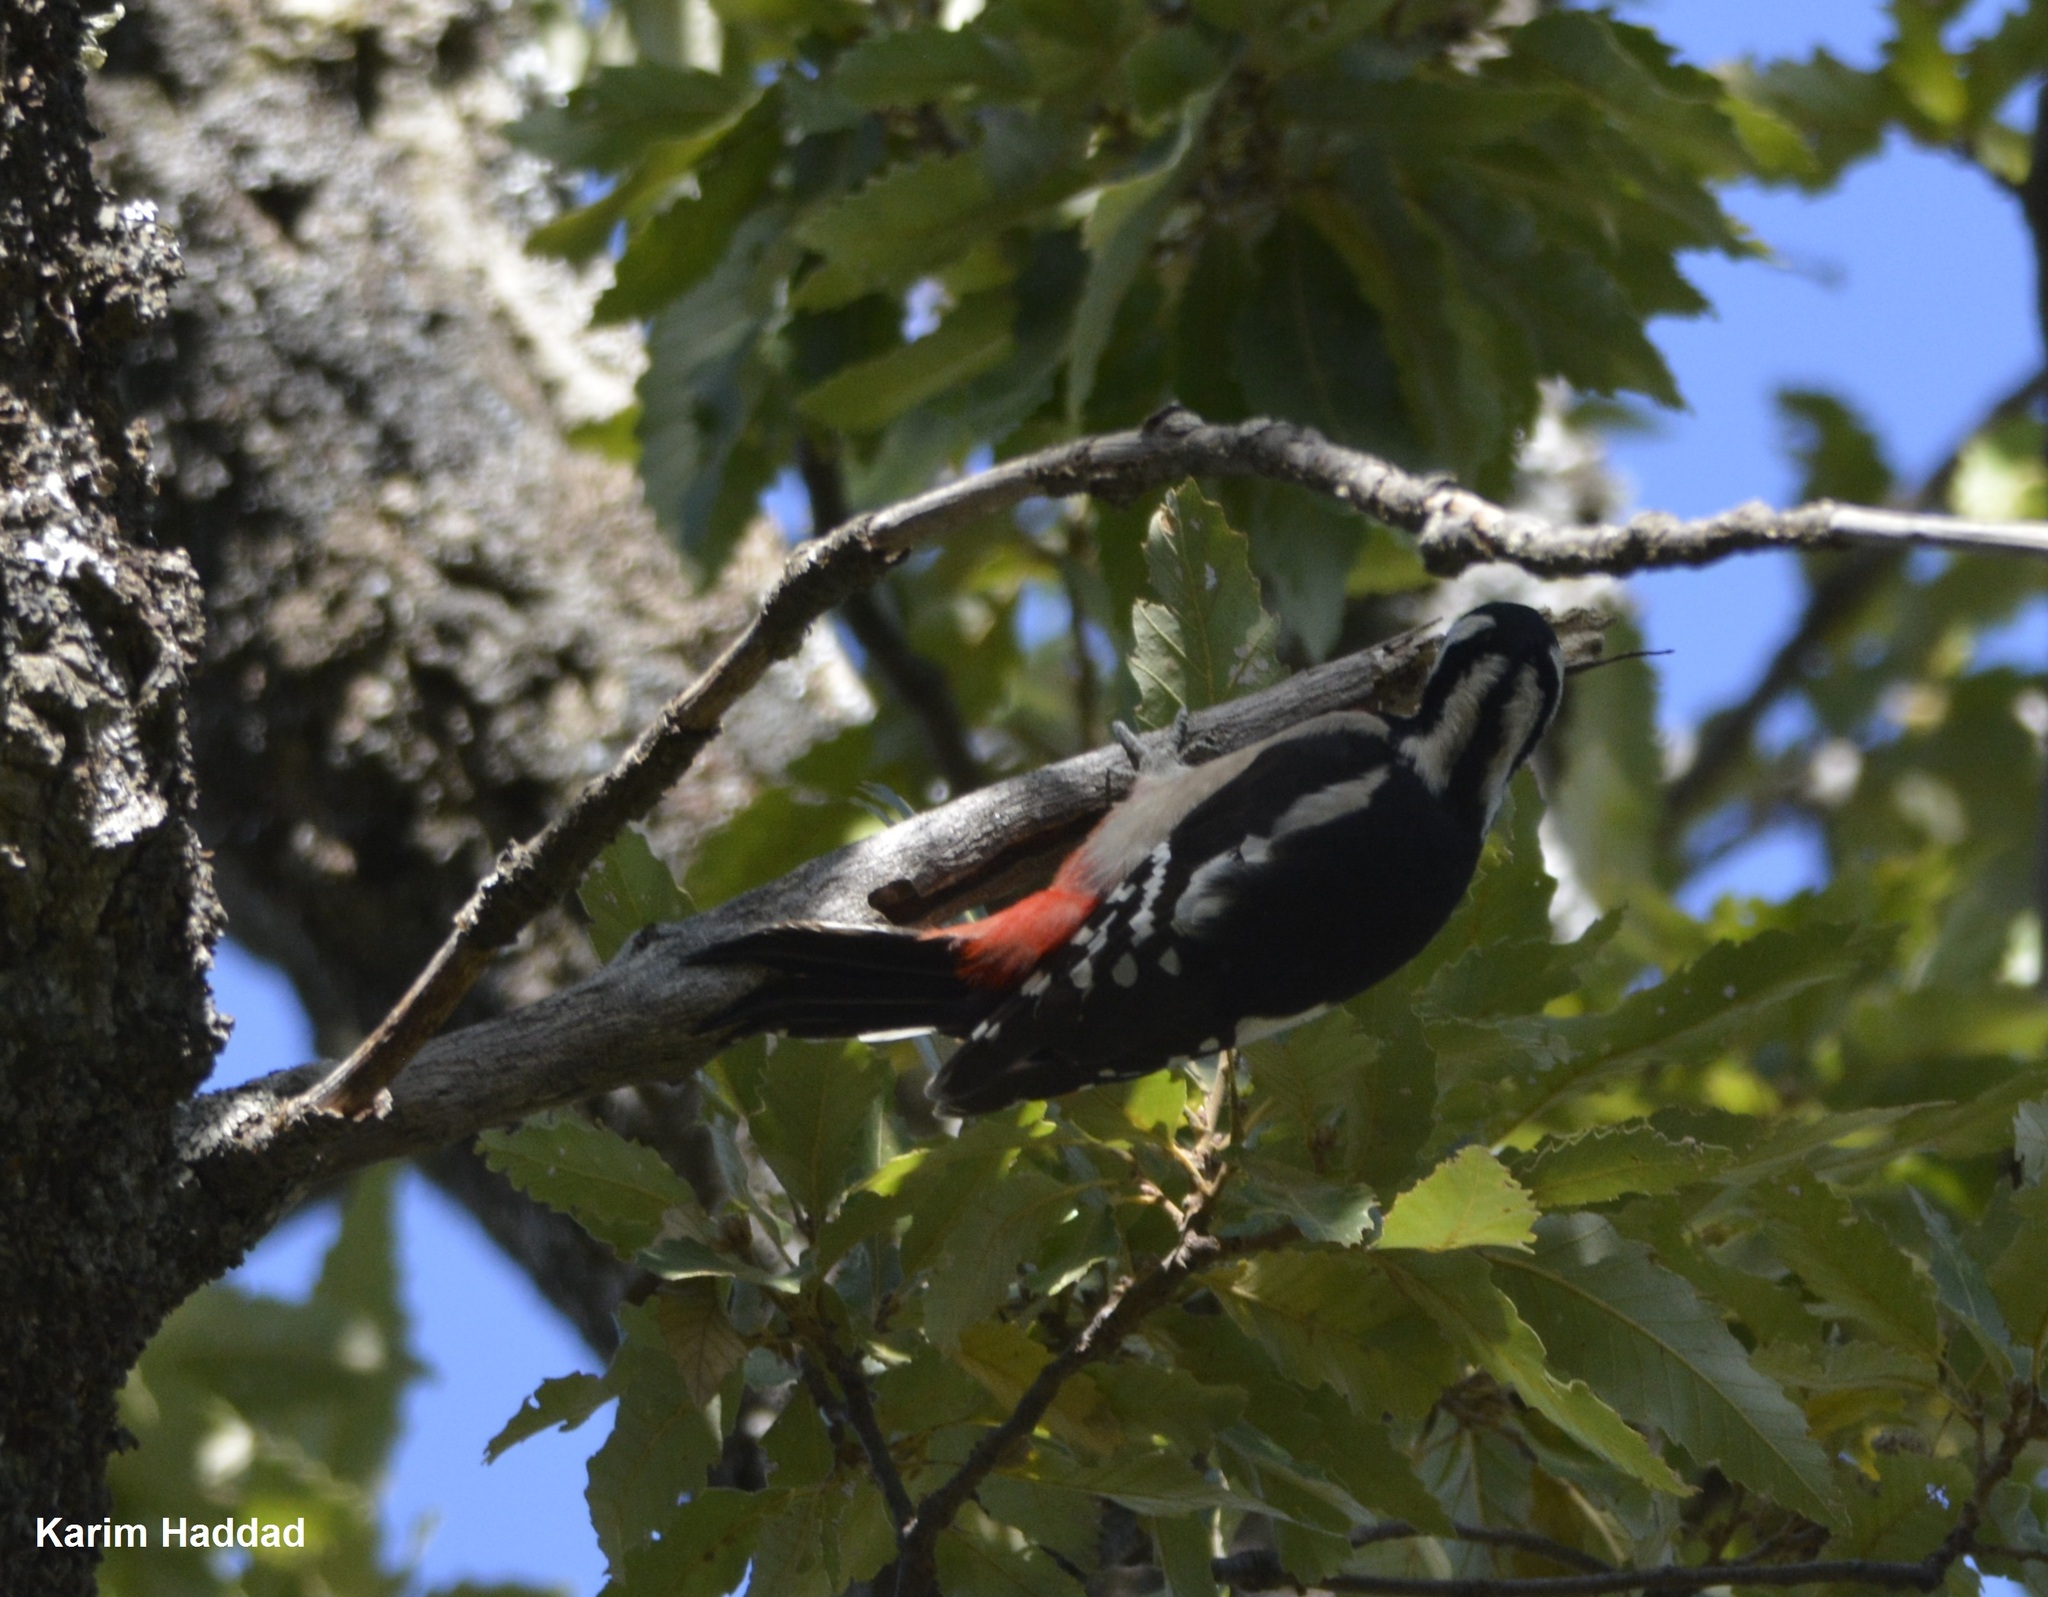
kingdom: Animalia
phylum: Chordata
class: Aves
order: Piciformes
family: Picidae
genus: Dendrocopos
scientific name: Dendrocopos major
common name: Great spotted woodpecker
